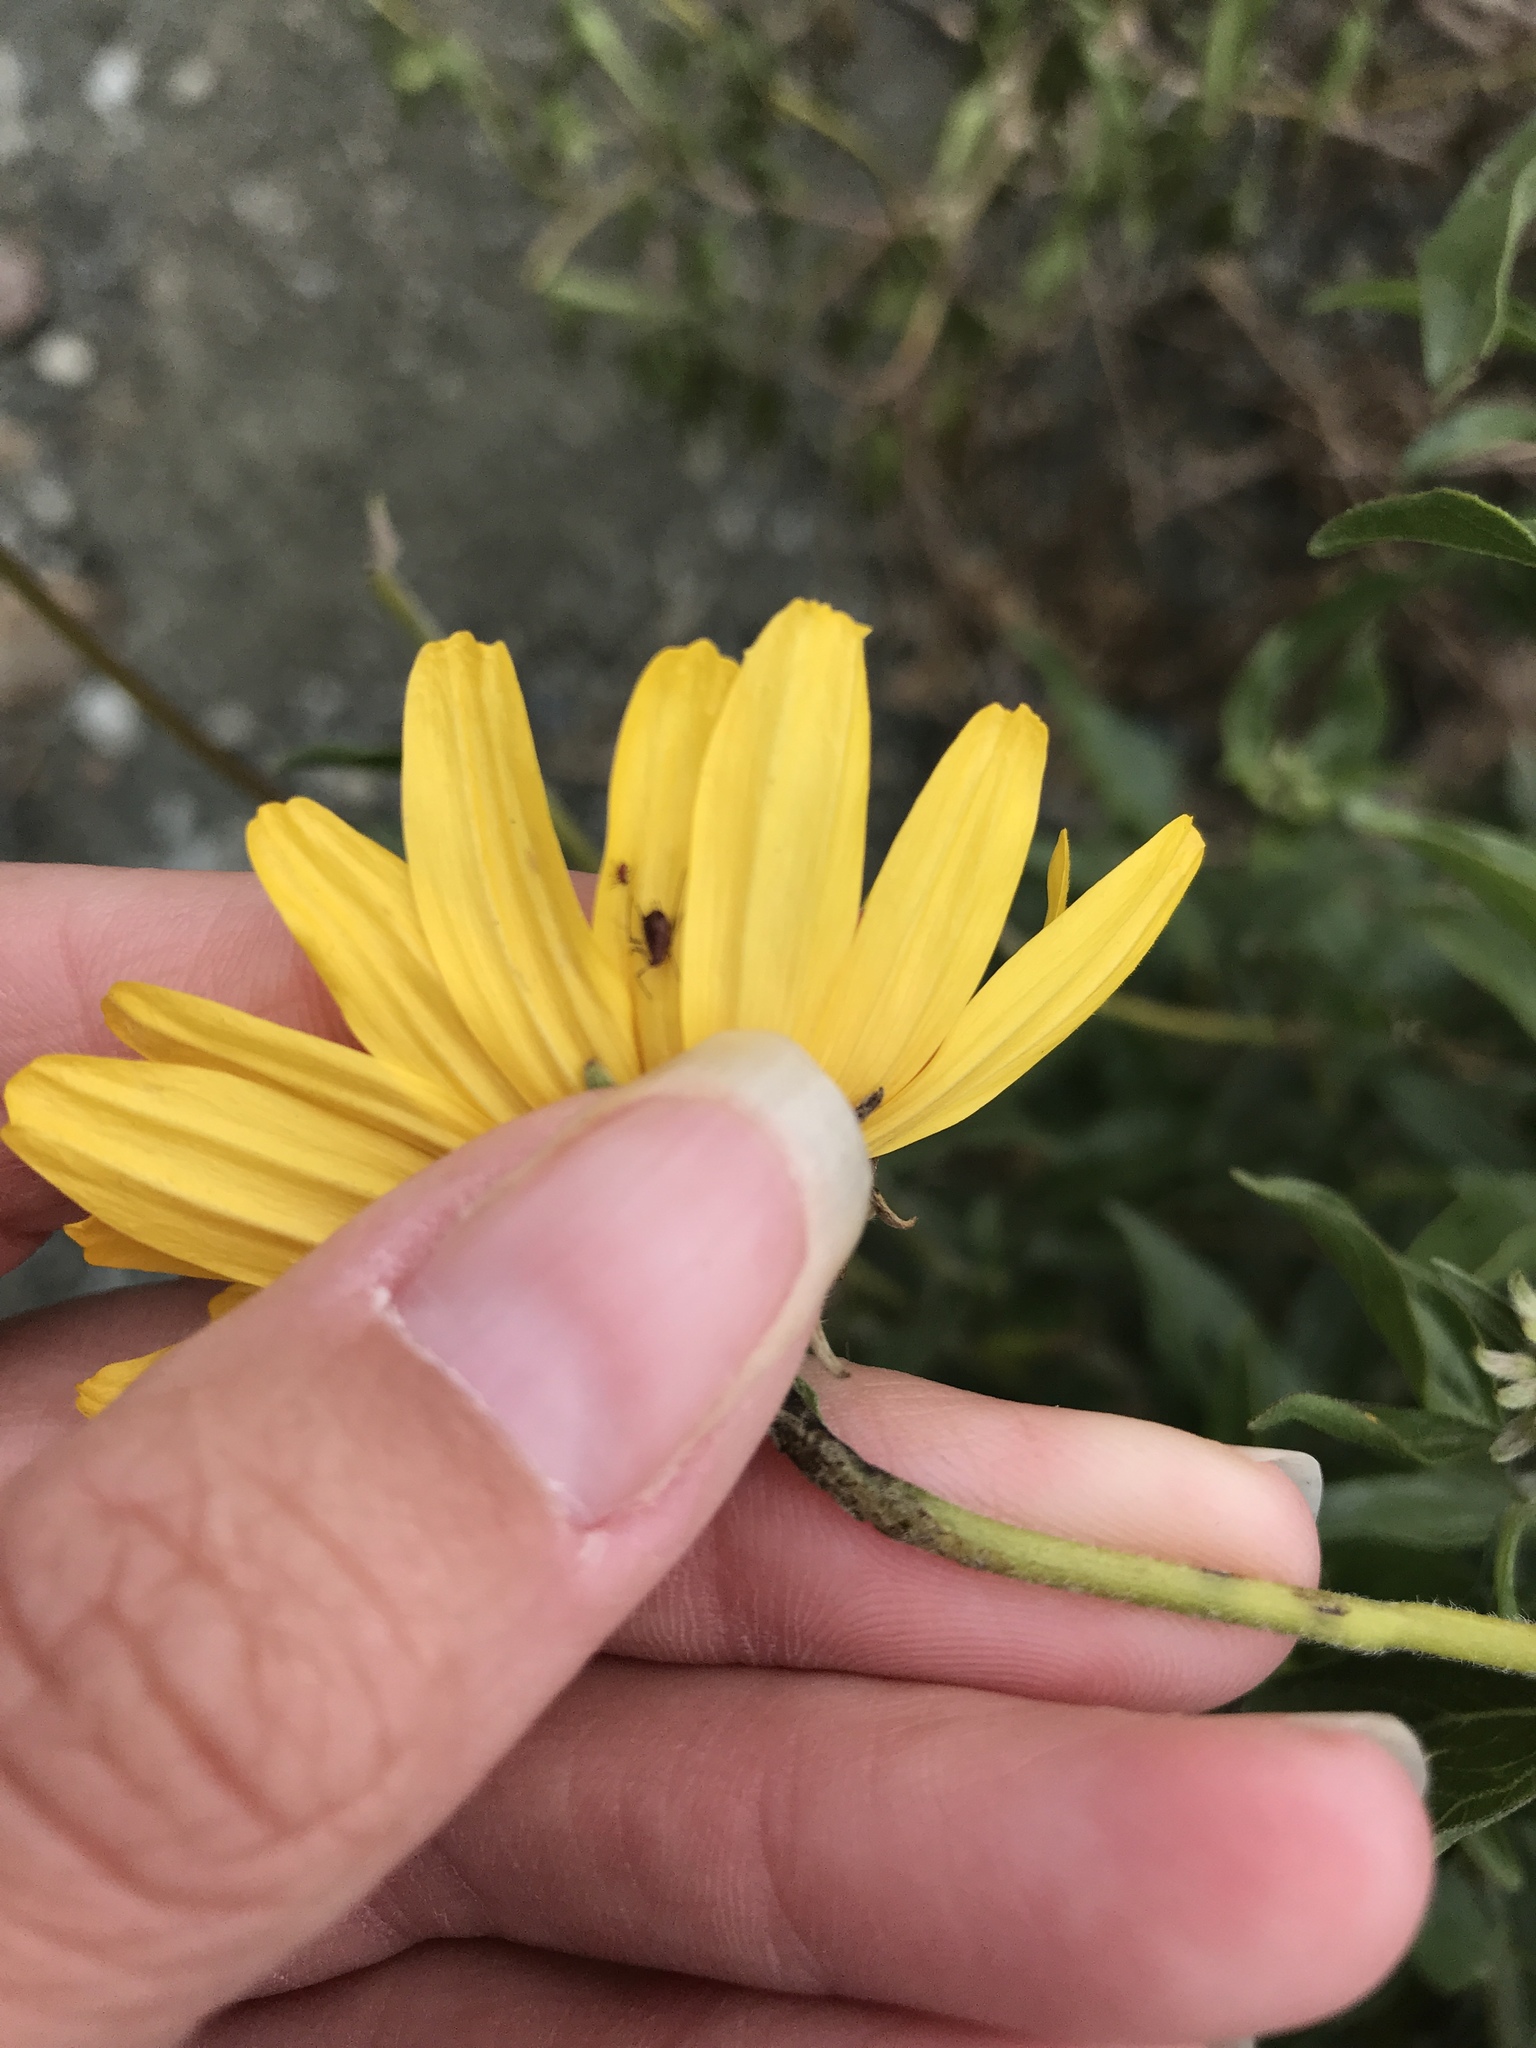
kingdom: Plantae
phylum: Tracheophyta
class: Magnoliopsida
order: Asterales
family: Asteraceae
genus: Encelia
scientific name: Encelia californica
